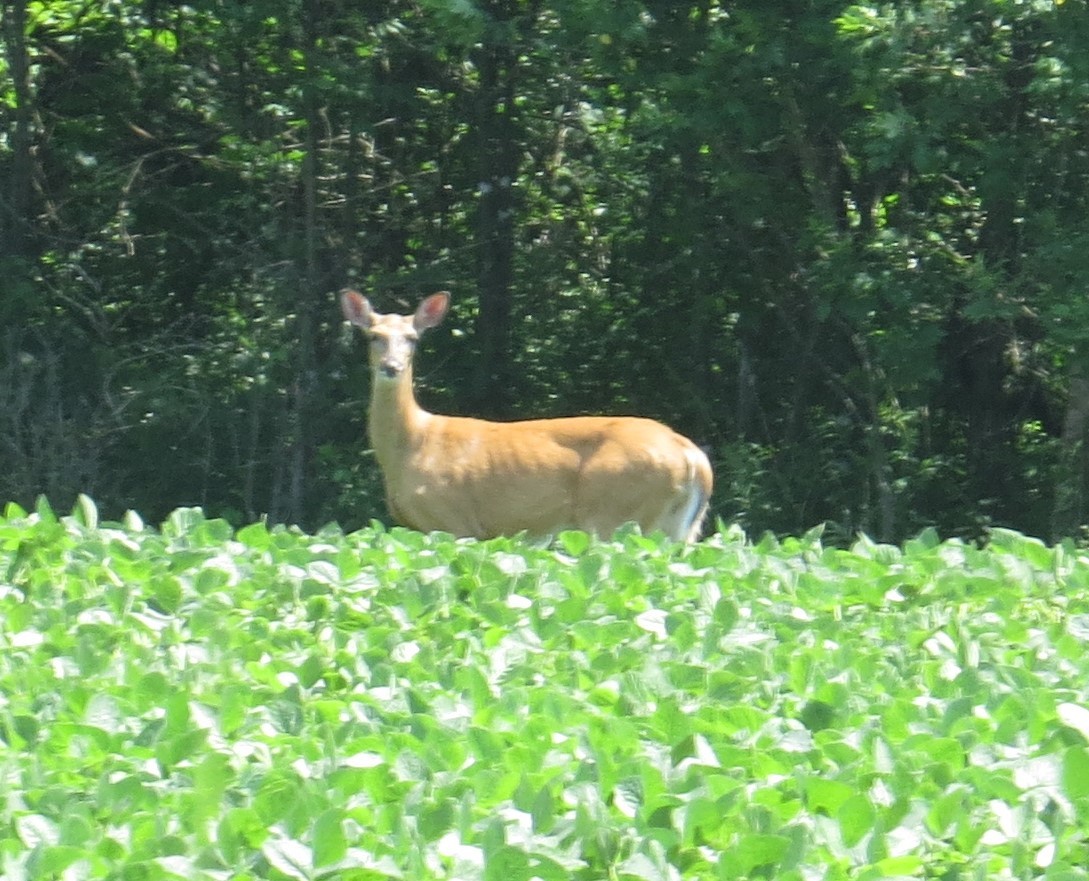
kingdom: Animalia
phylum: Chordata
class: Mammalia
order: Artiodactyla
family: Cervidae
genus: Odocoileus
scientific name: Odocoileus virginianus
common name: White-tailed deer
